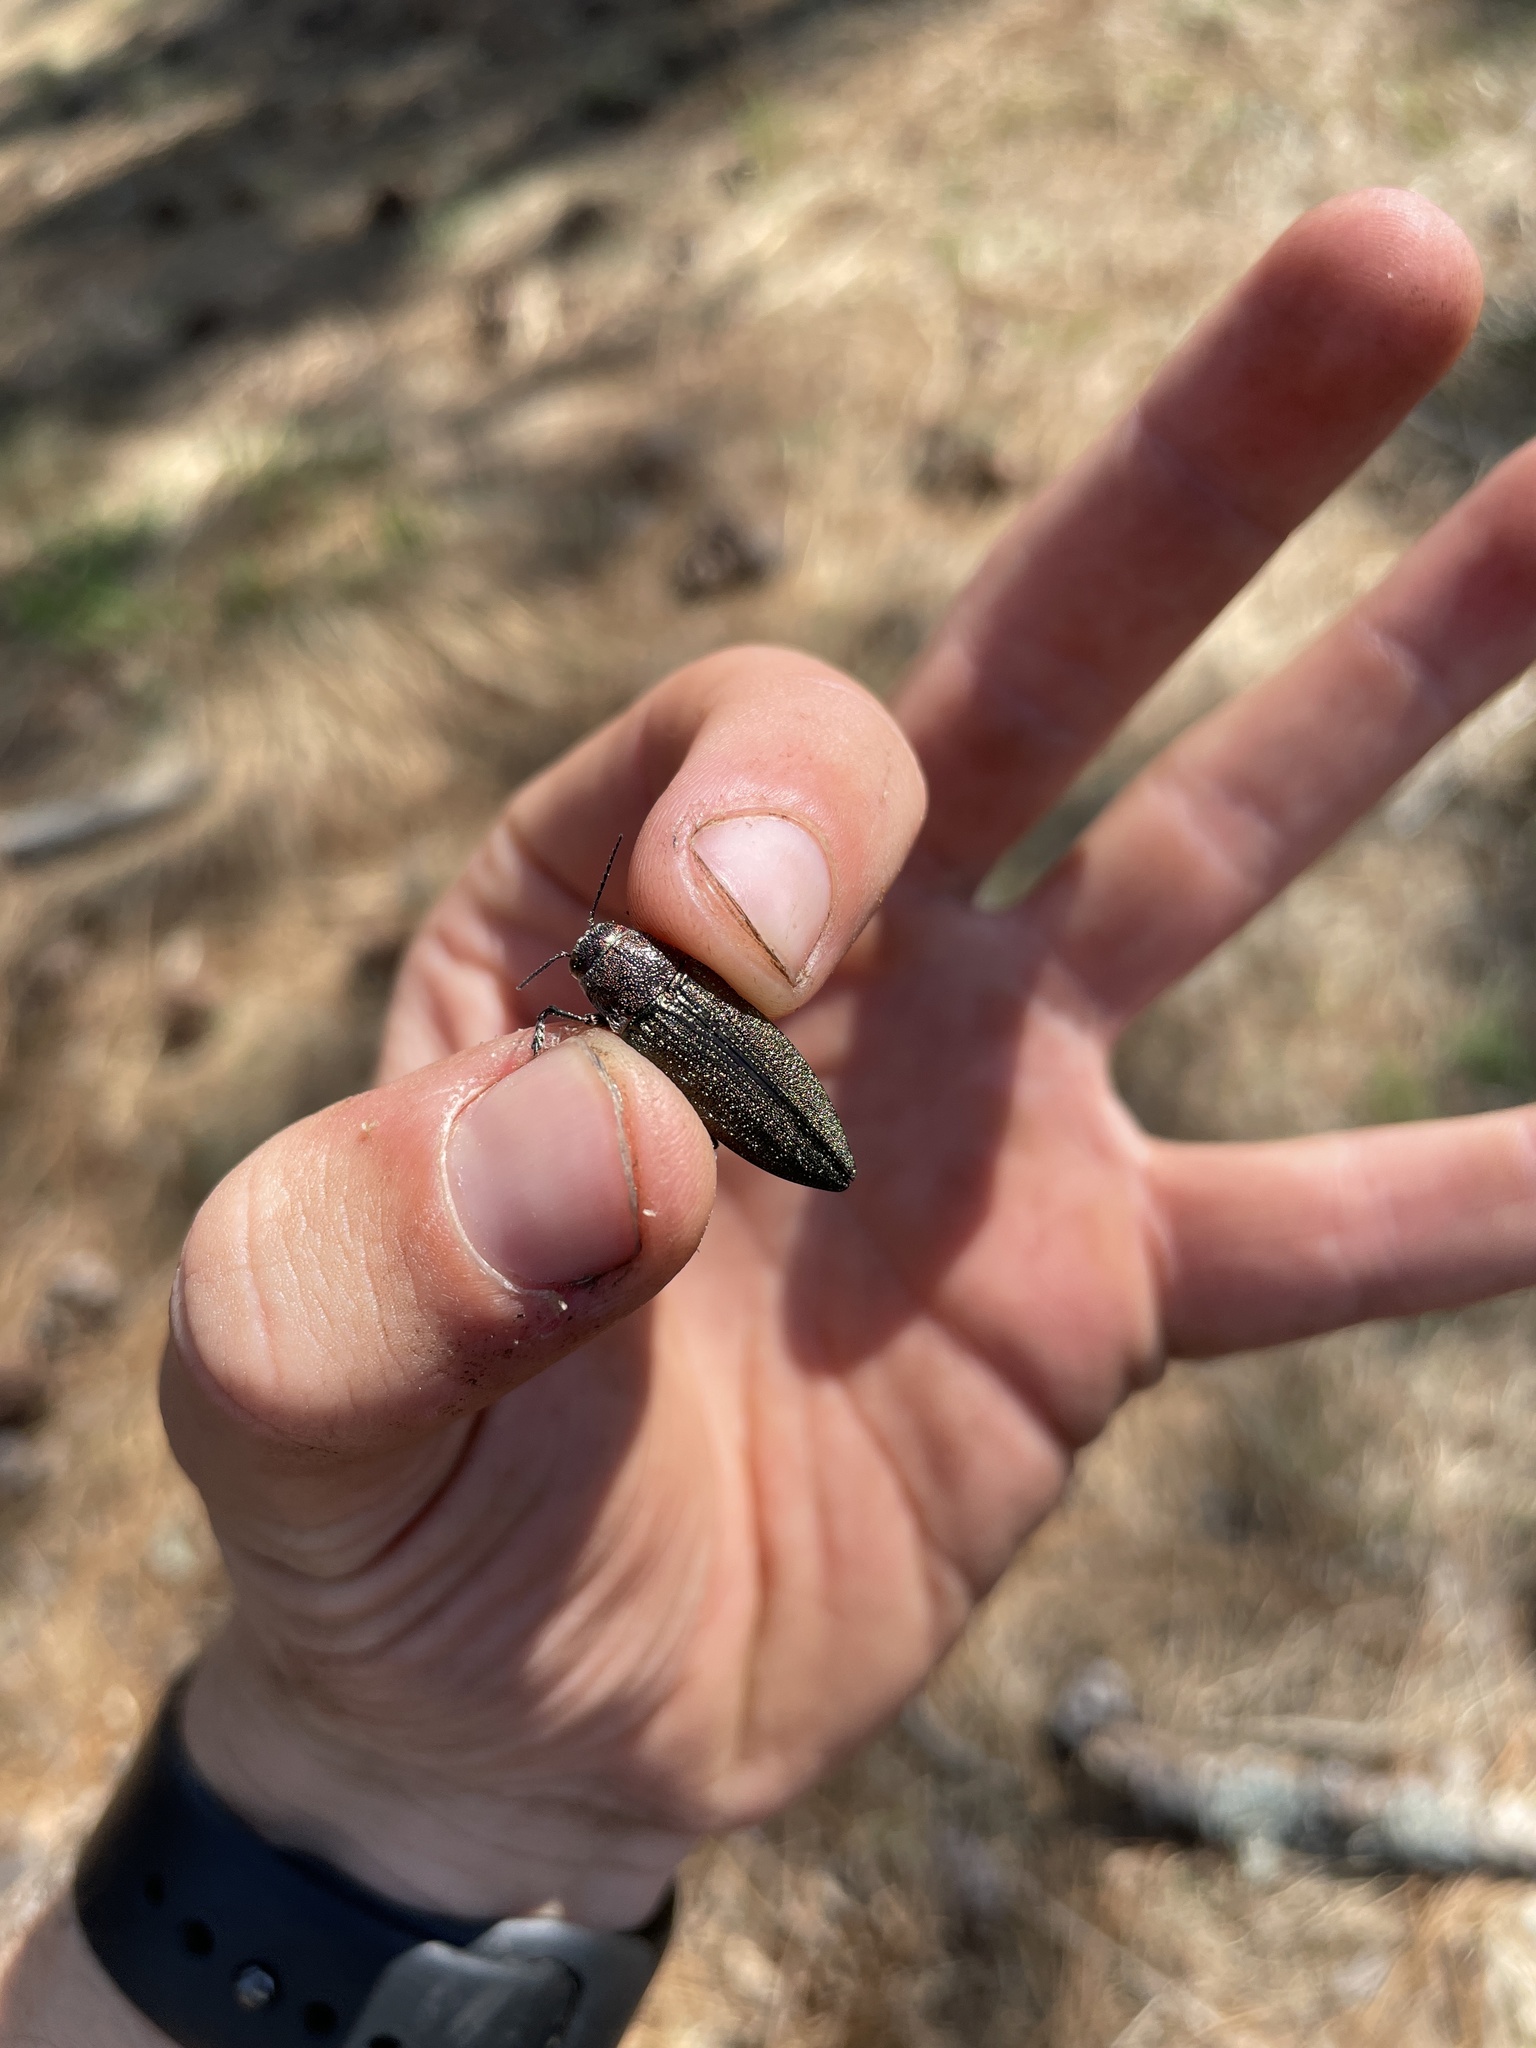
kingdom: Animalia
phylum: Arthropoda
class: Insecta
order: Coleoptera
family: Buprestidae
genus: Buprestis
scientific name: Buprestis apricans
